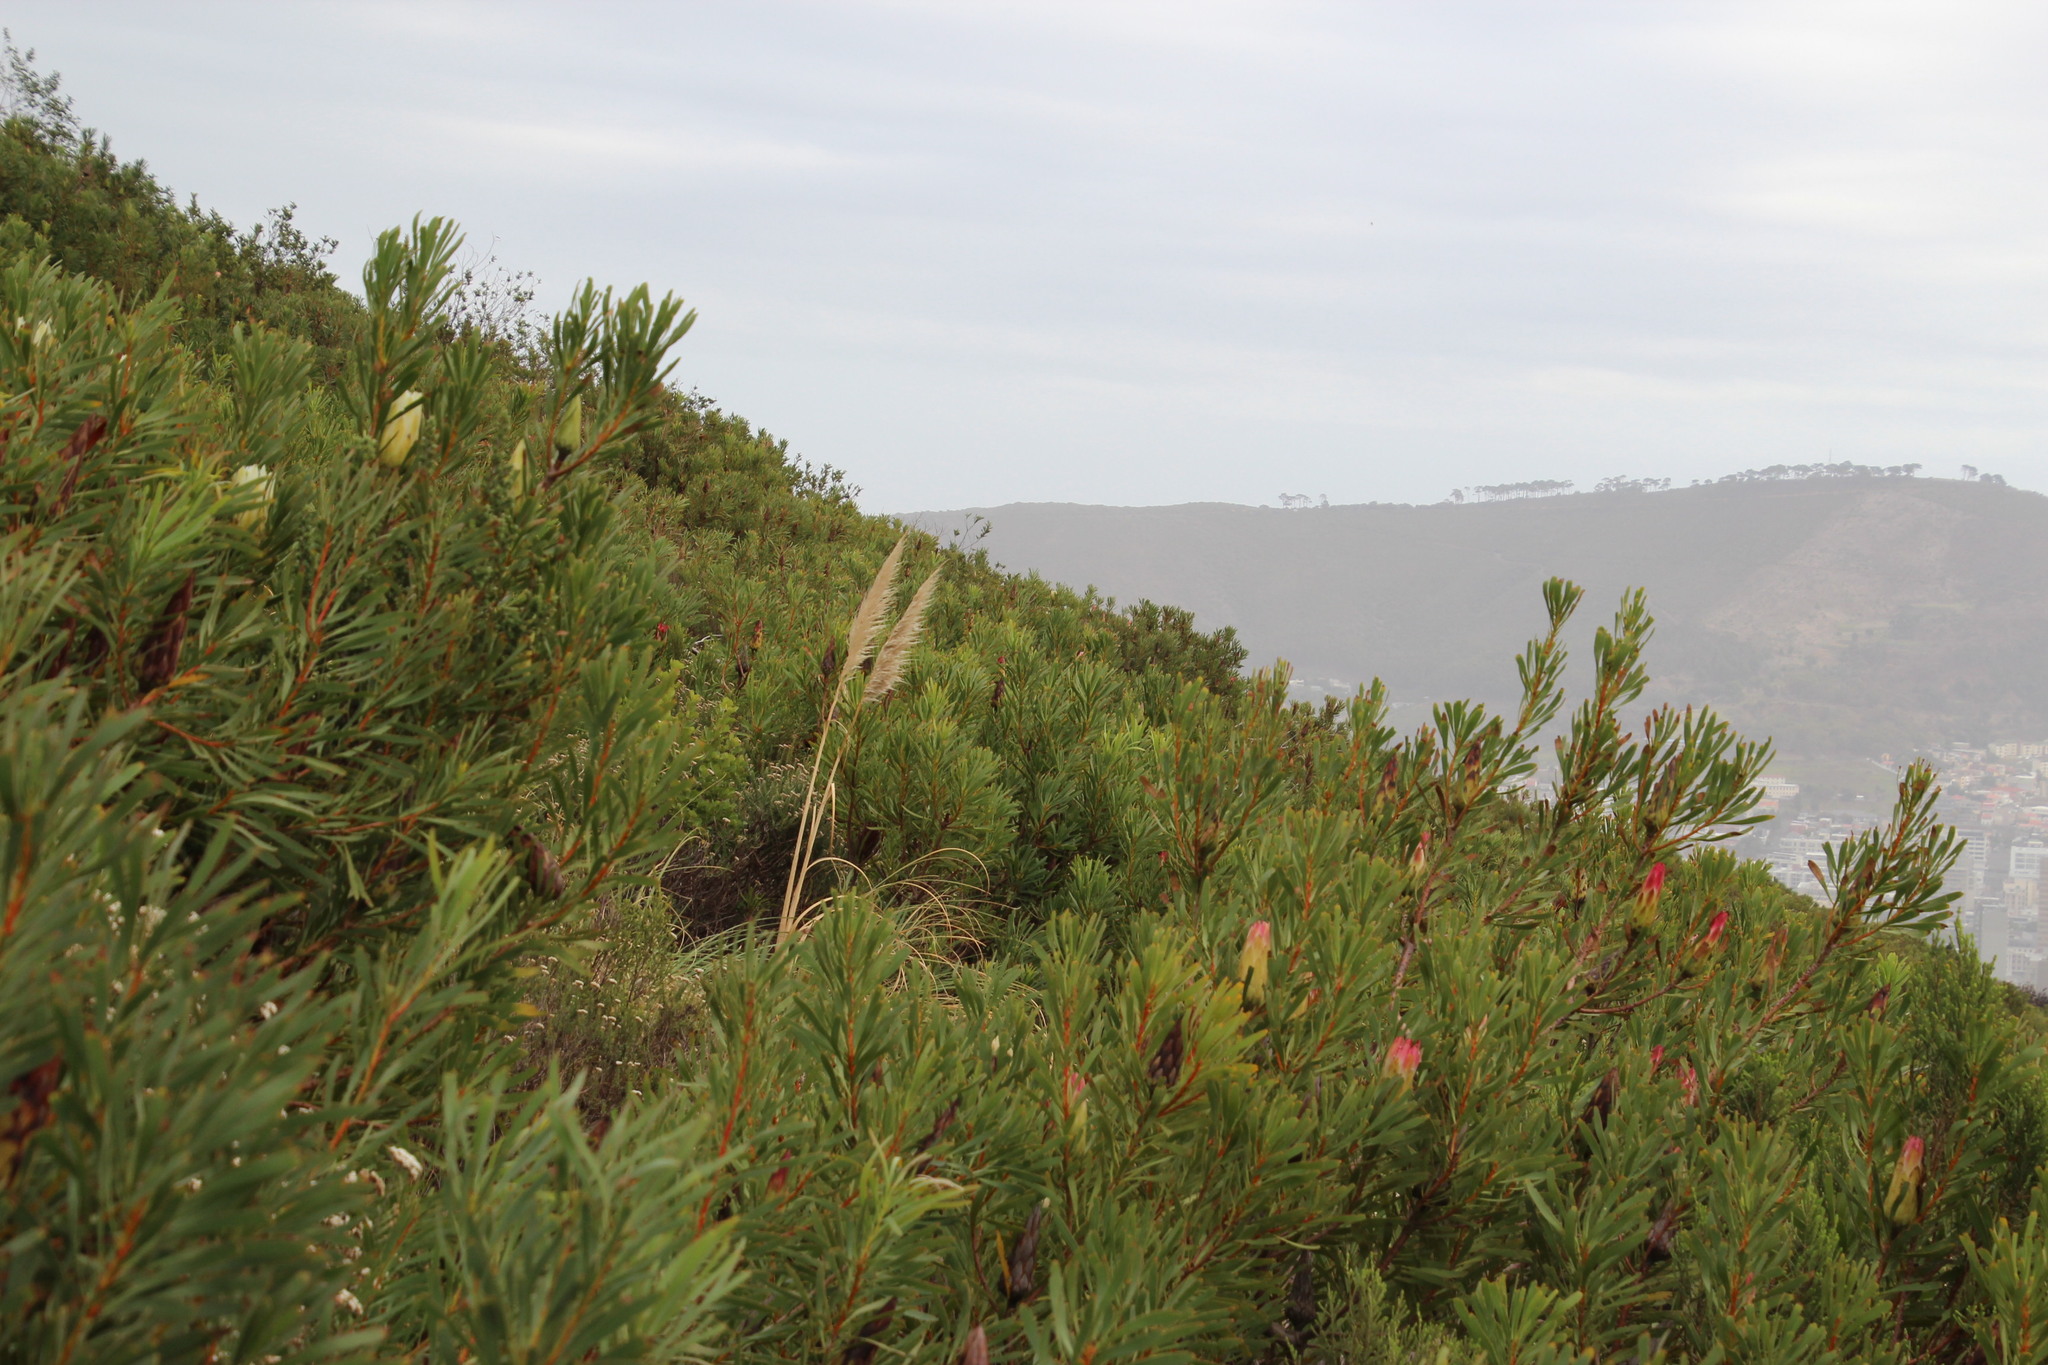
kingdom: Plantae
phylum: Tracheophyta
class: Liliopsida
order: Poales
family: Poaceae
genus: Cortaderia
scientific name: Cortaderia selloana
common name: Uruguayan pampas grass
